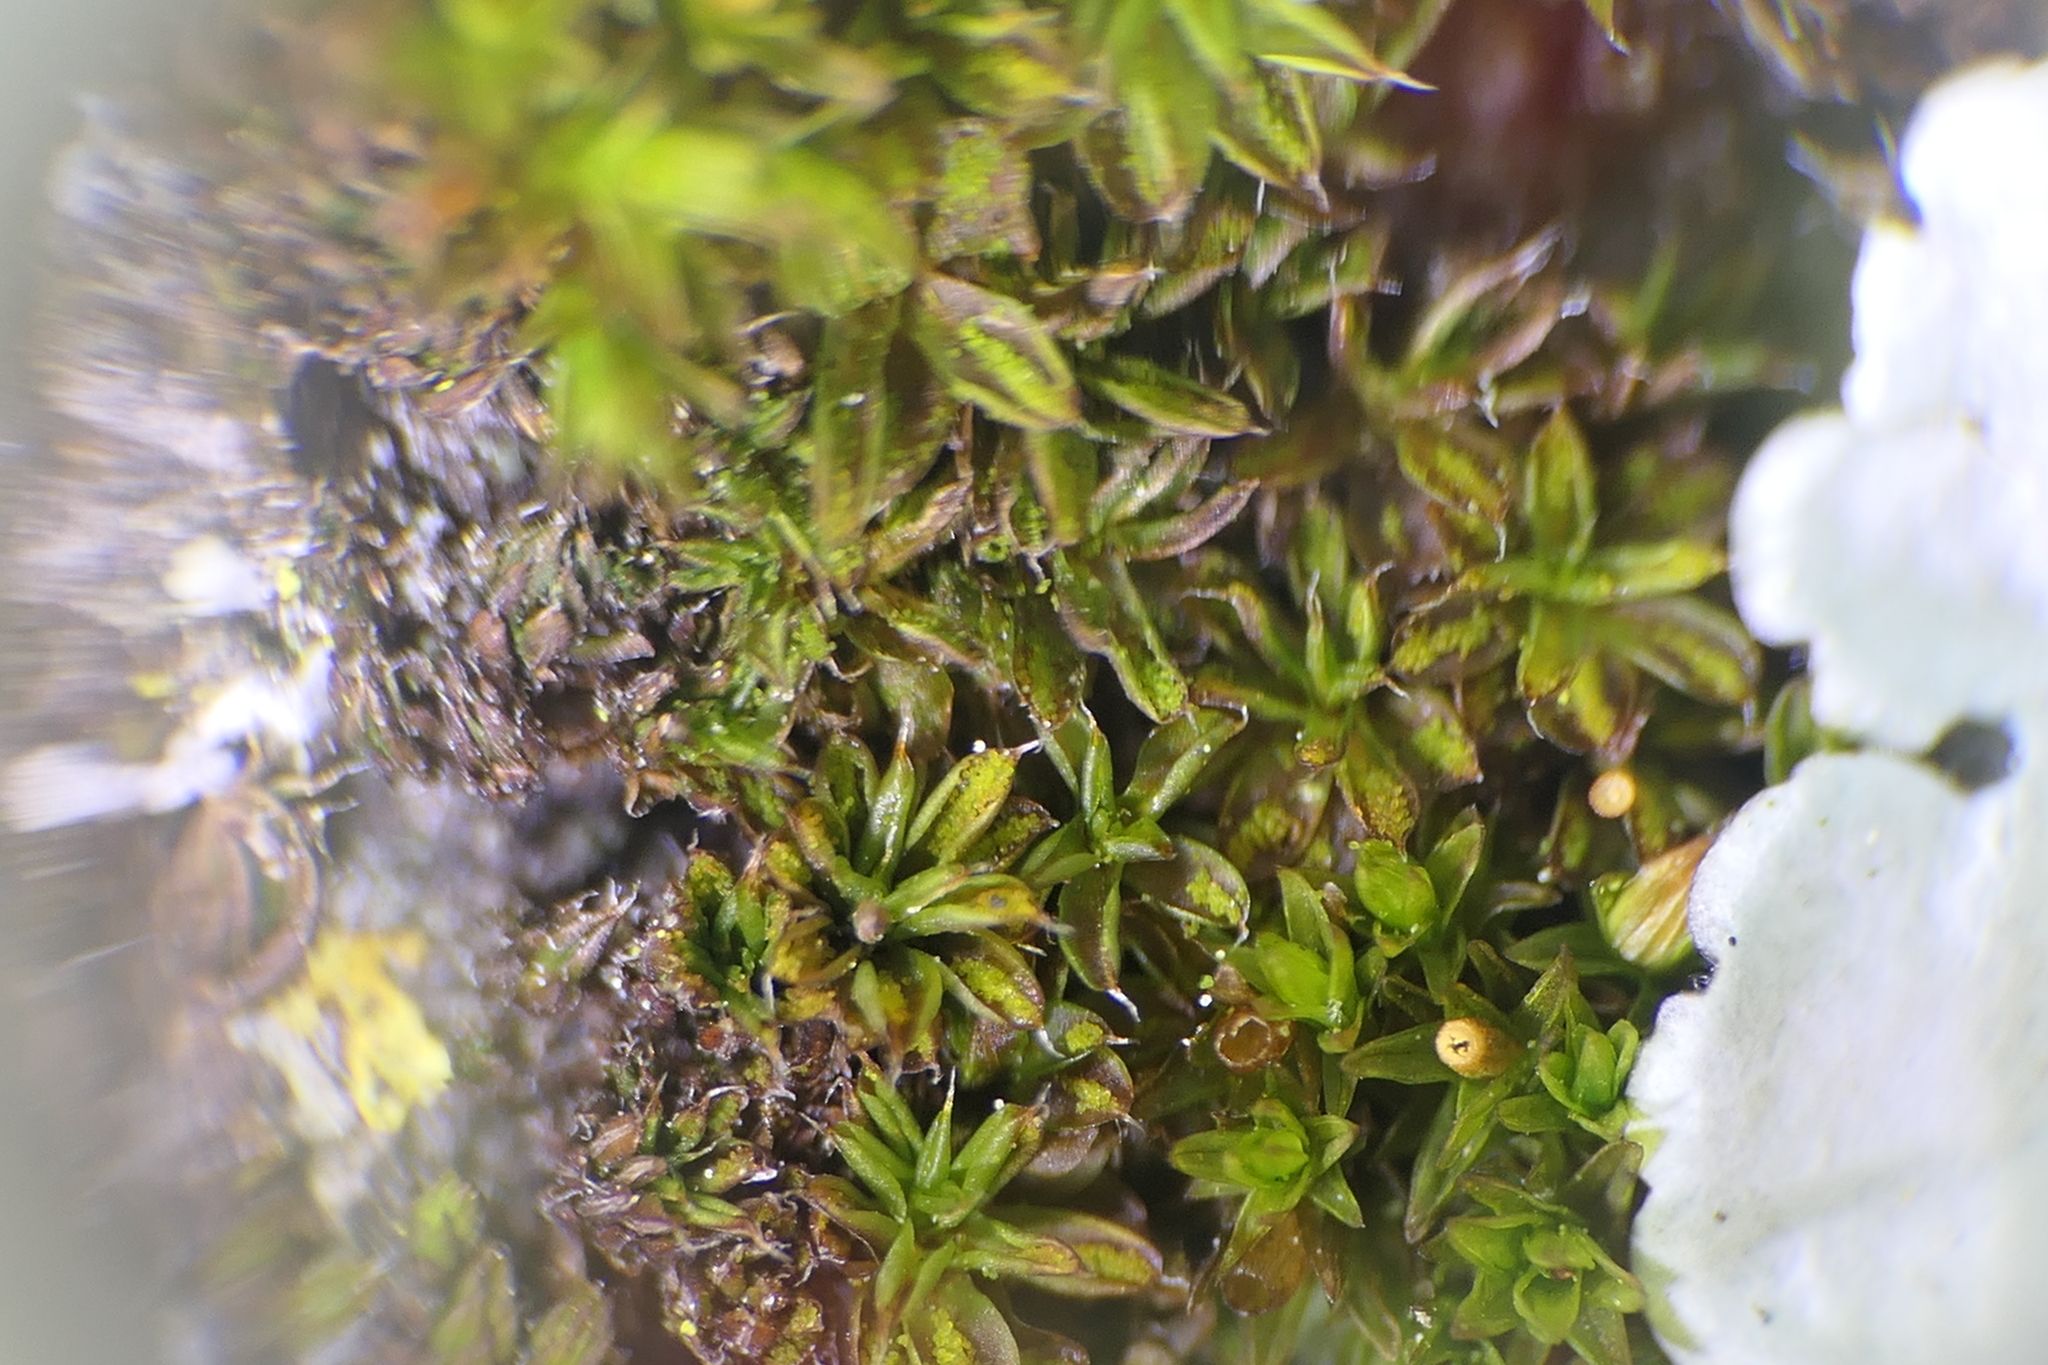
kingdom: Plantae
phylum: Bryophyta
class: Bryopsida
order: Pottiales
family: Pottiaceae
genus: Syntrichia
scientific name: Syntrichia papillosa
